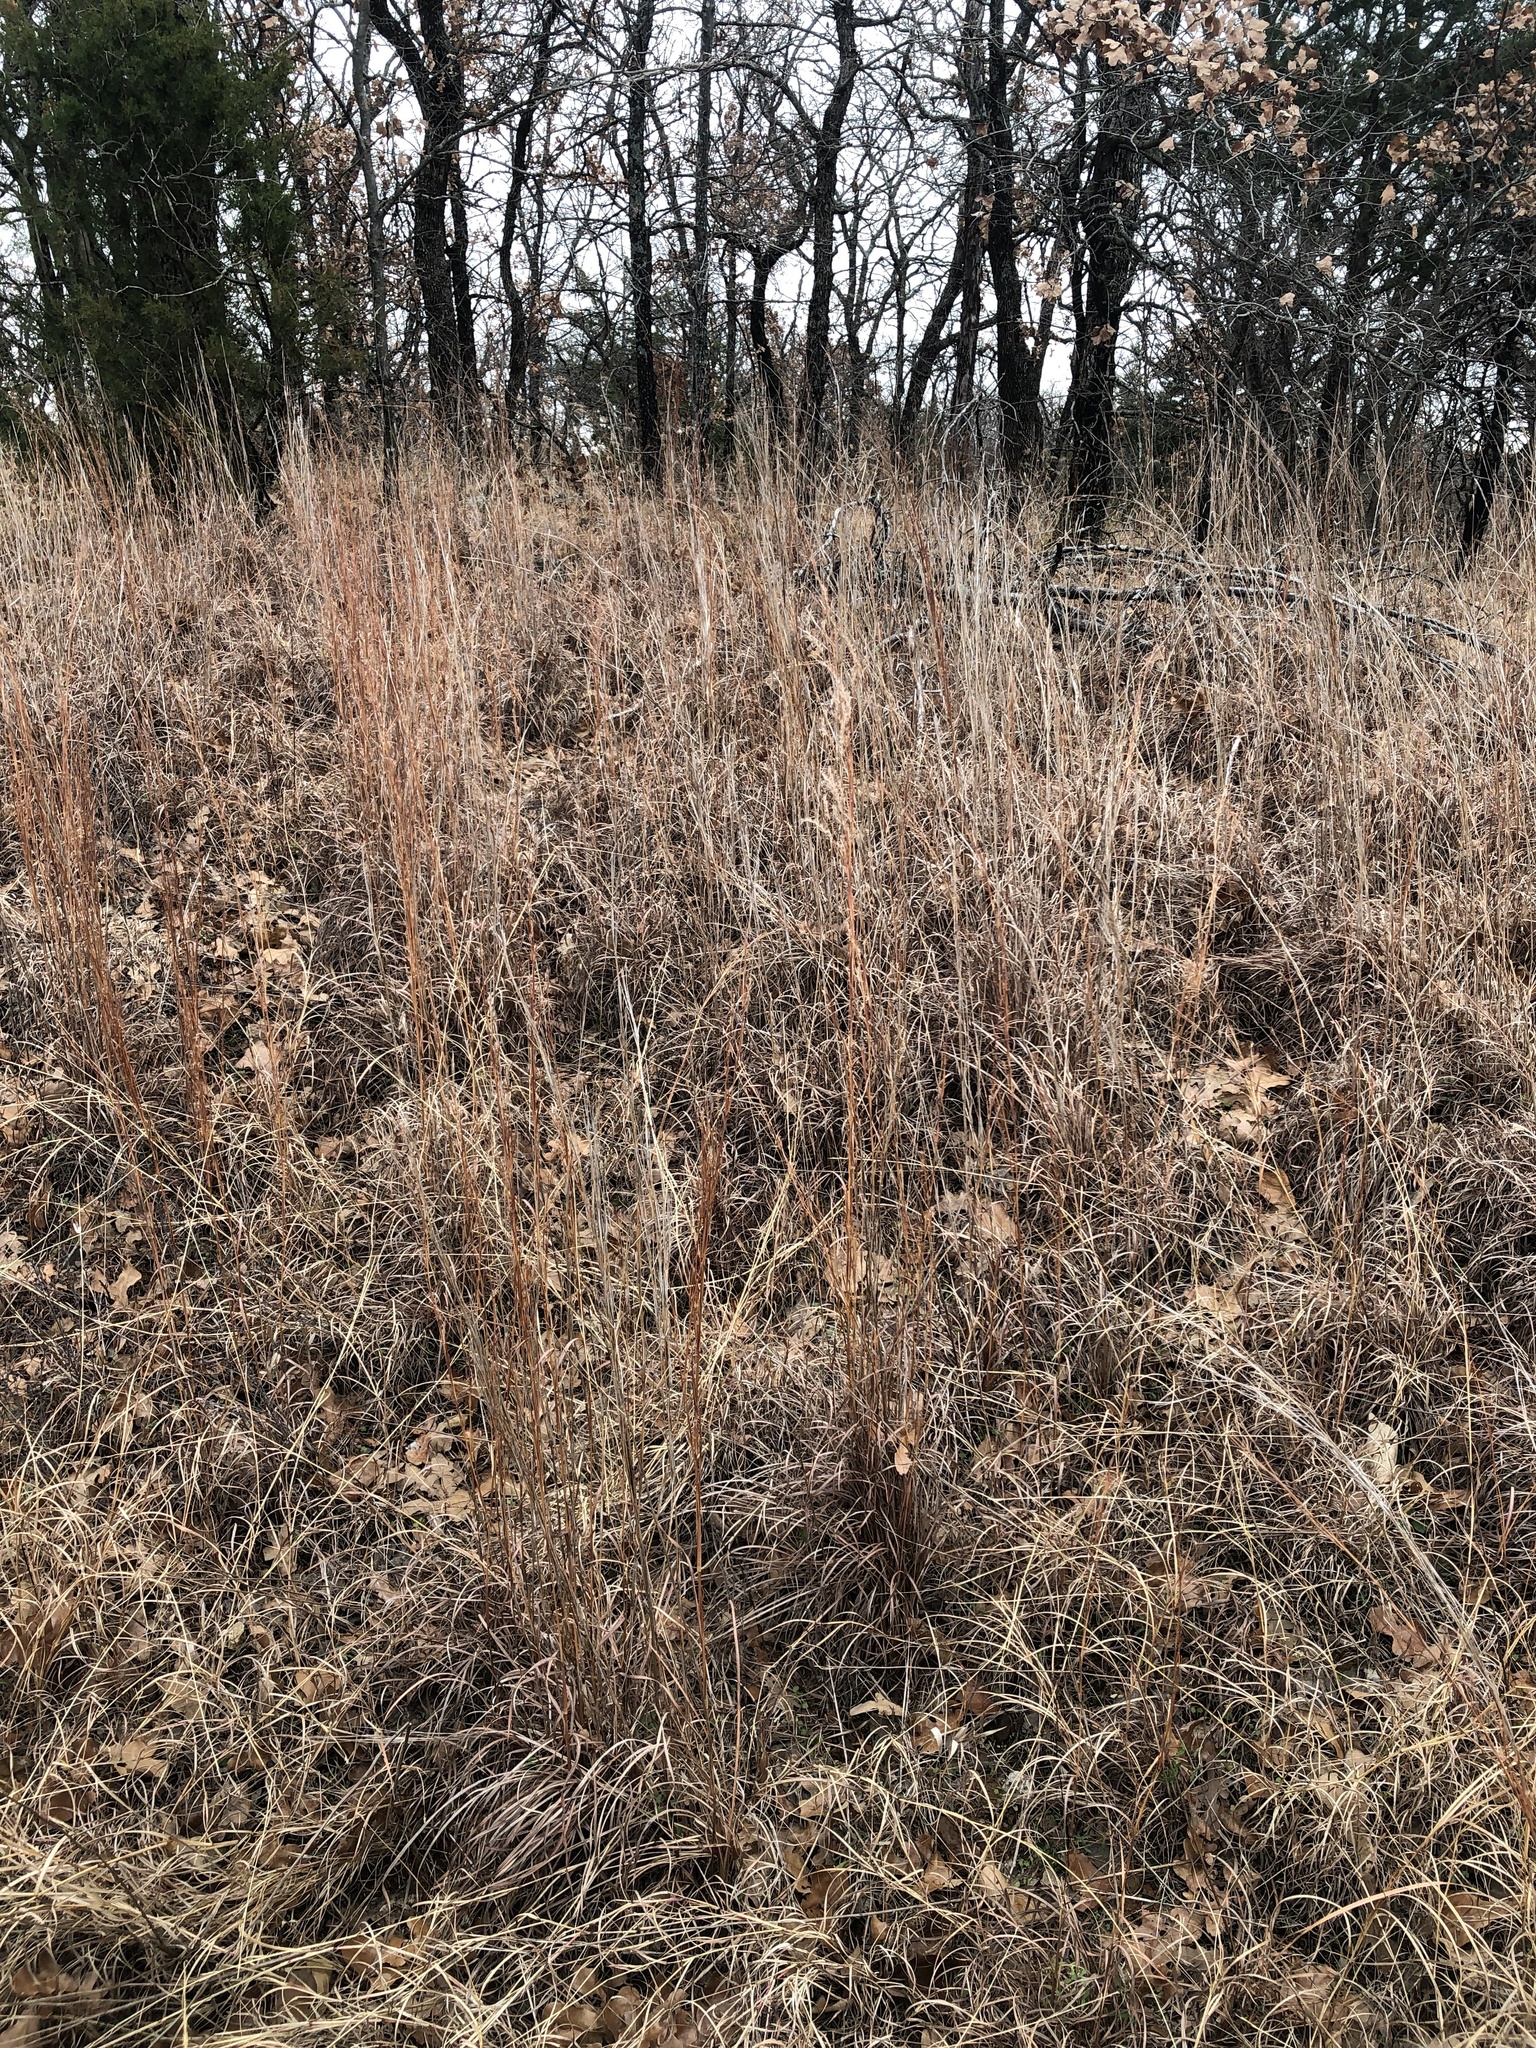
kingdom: Plantae
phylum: Tracheophyta
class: Liliopsida
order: Poales
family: Poaceae
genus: Schizachyrium
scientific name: Schizachyrium scoparium
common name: Little bluestem
